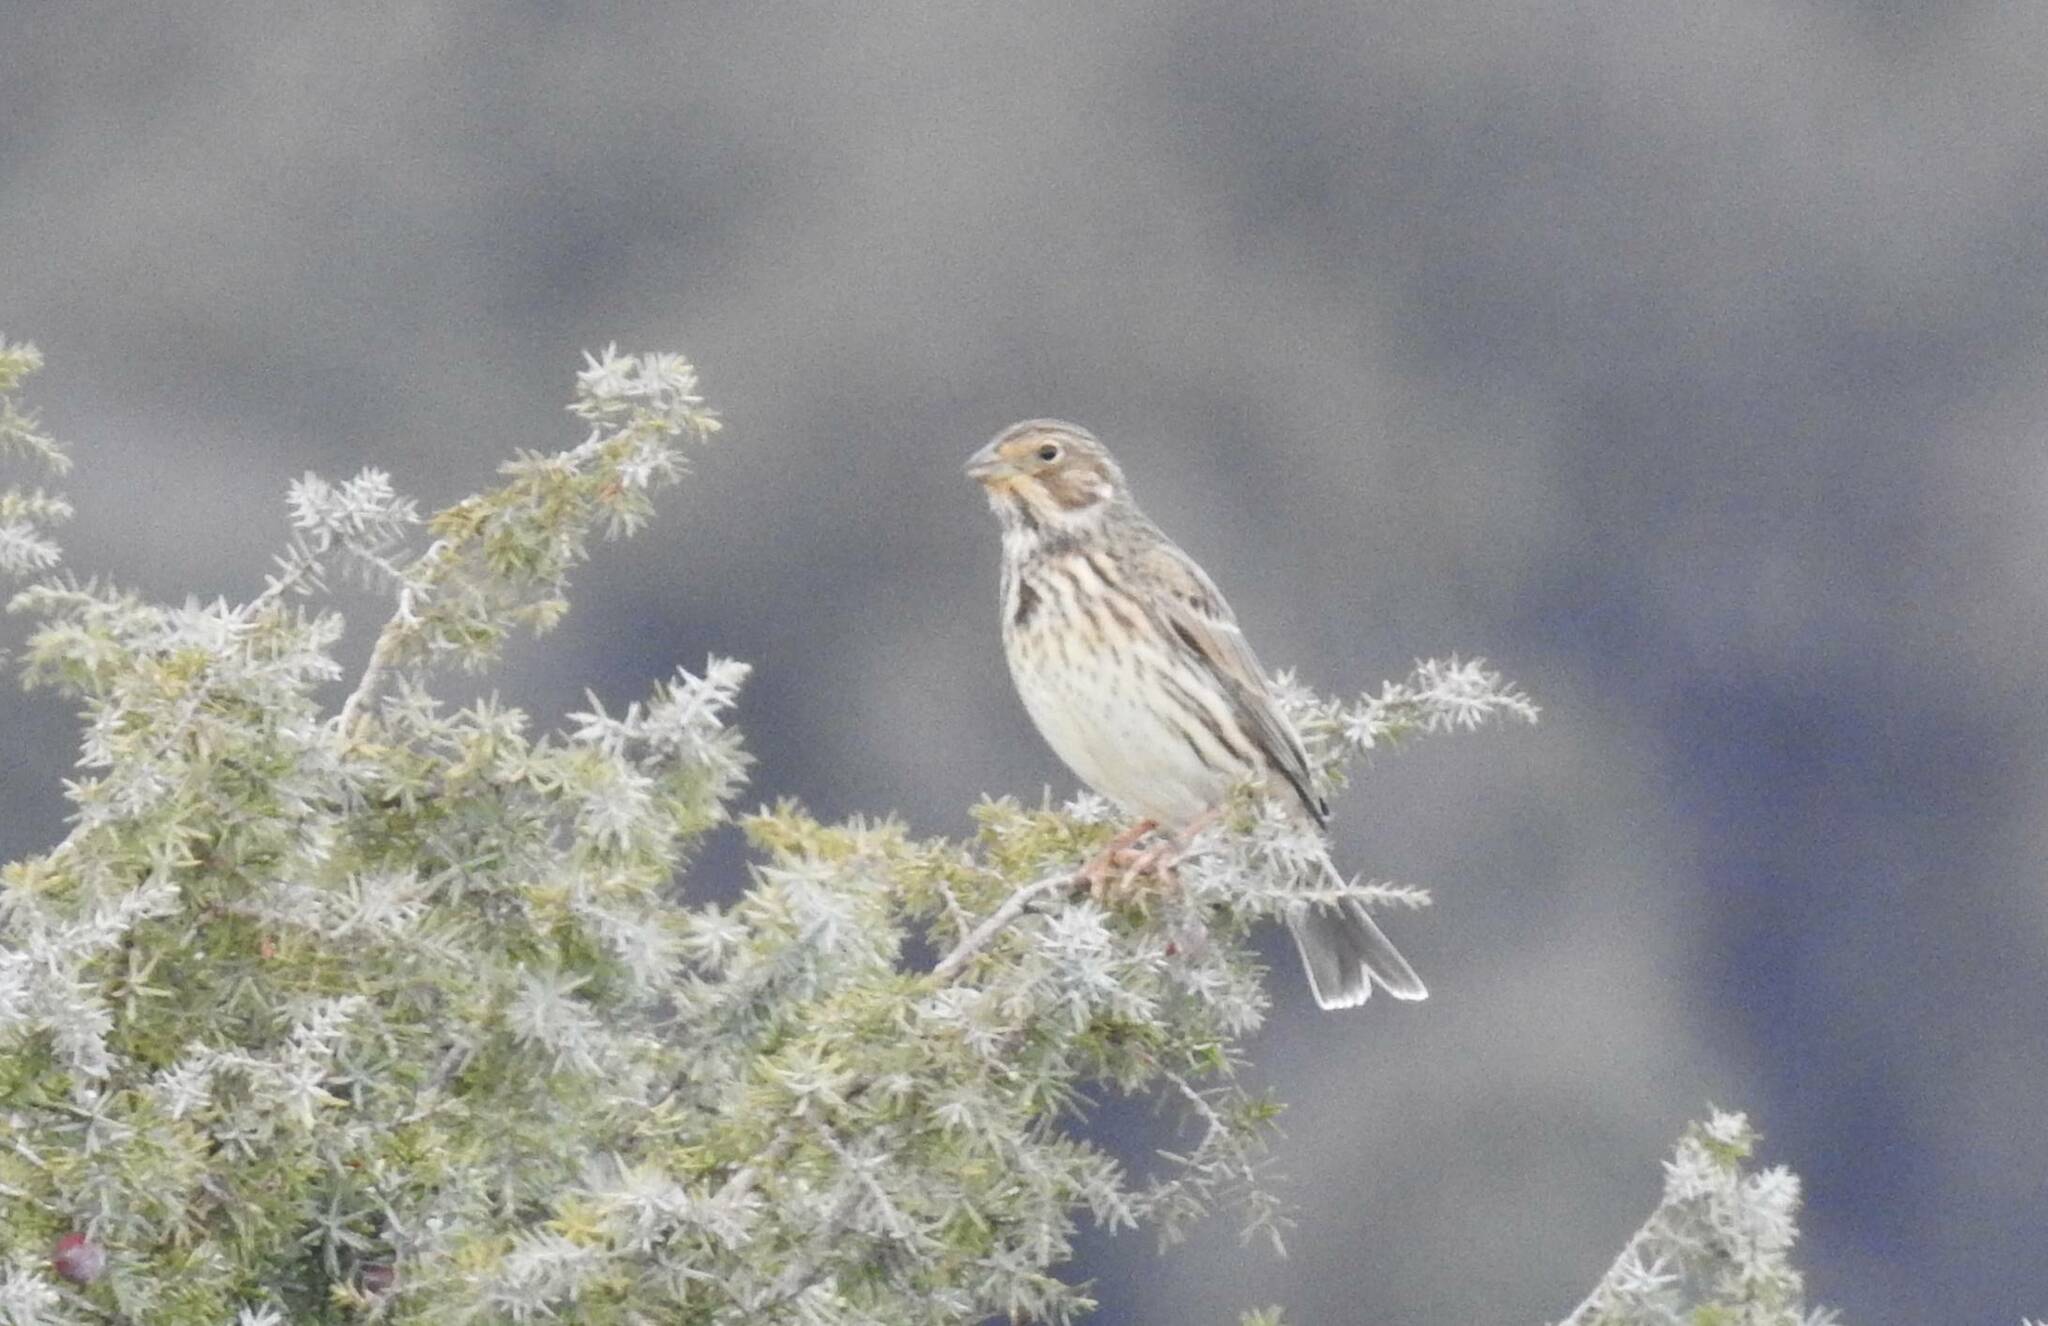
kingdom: Animalia
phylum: Chordata
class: Aves
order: Passeriformes
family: Emberizidae
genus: Emberiza
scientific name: Emberiza calandra
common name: Corn bunting
